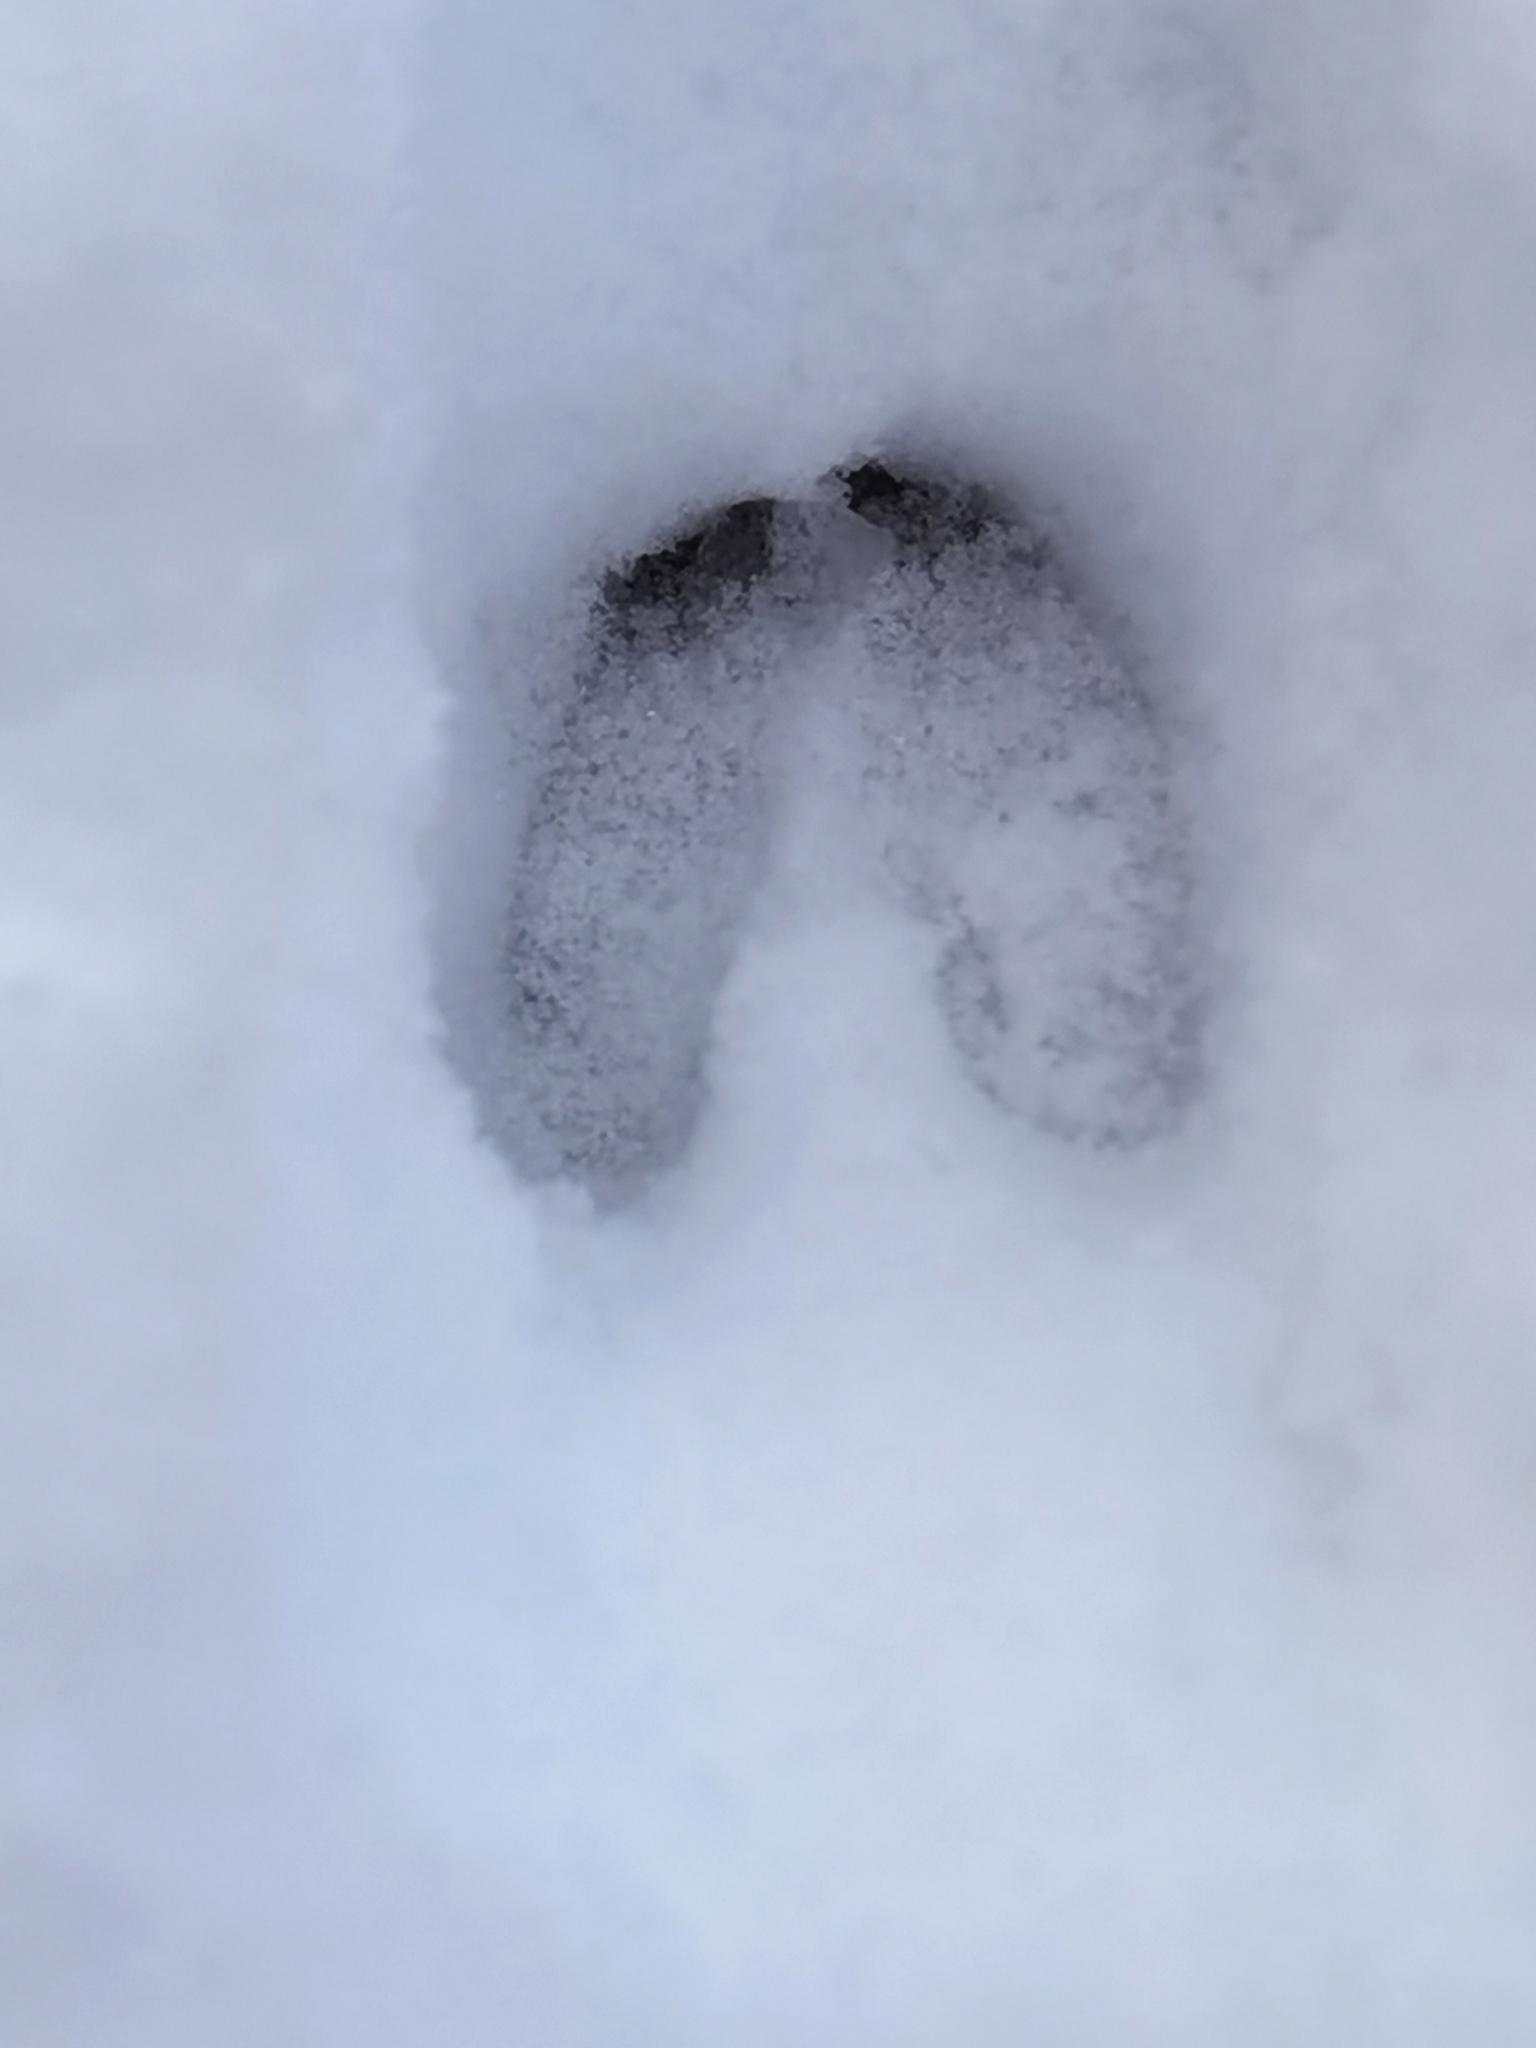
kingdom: Animalia
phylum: Chordata
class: Mammalia
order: Artiodactyla
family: Cervidae
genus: Capreolus
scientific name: Capreolus capreolus
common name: Western roe deer
